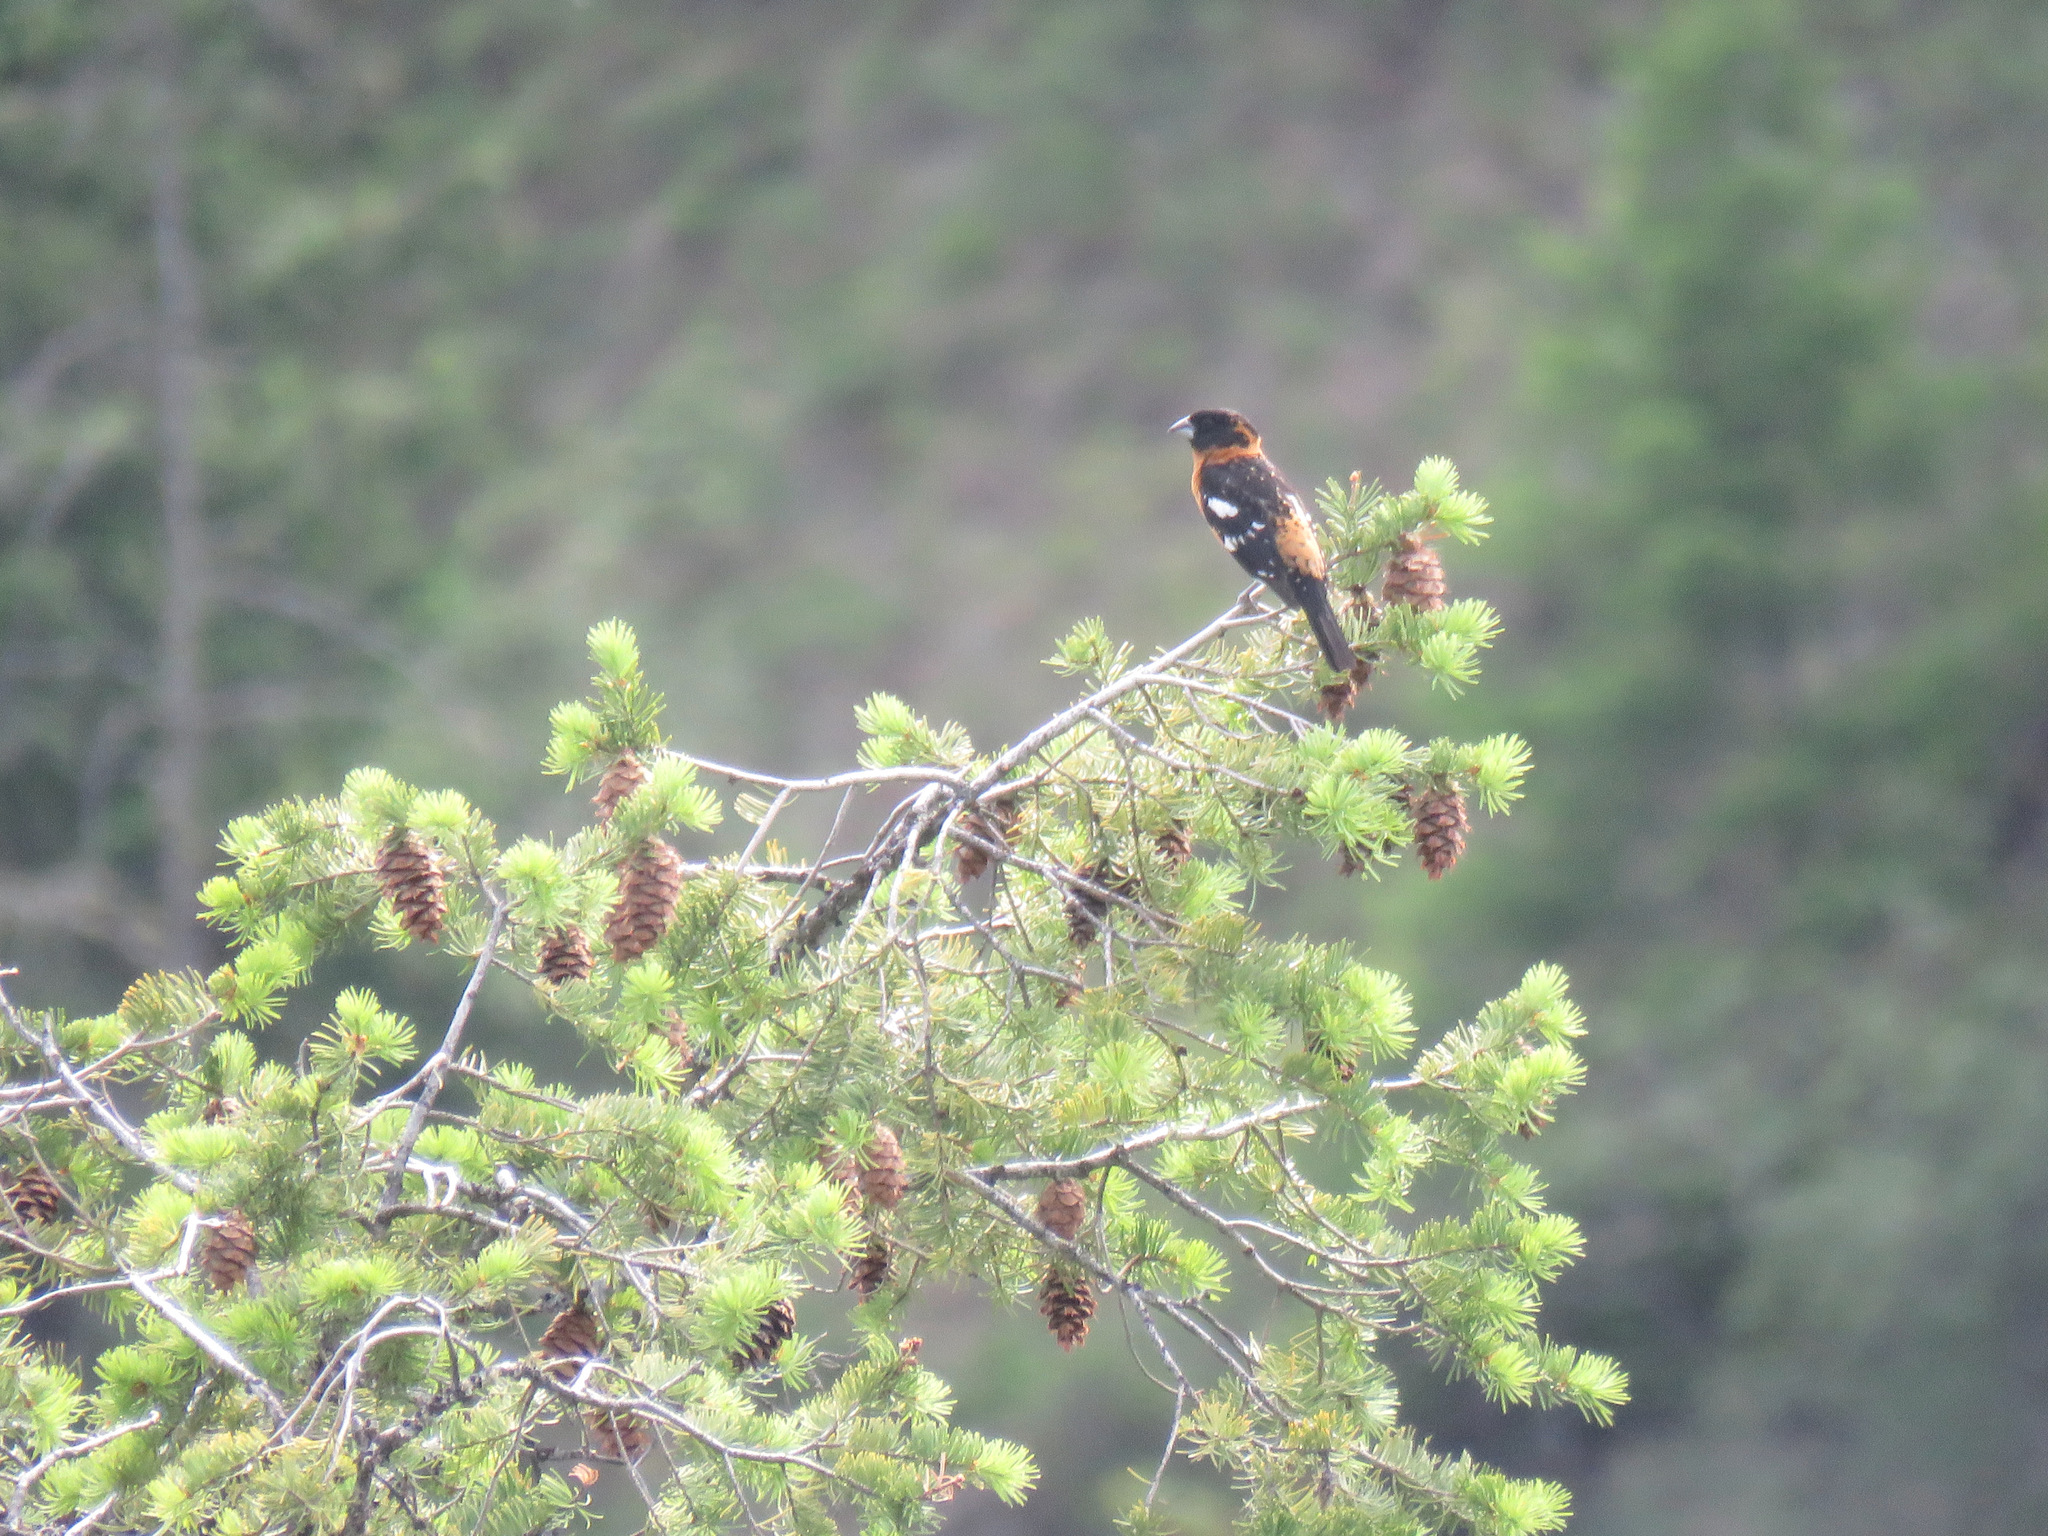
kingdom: Animalia
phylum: Chordata
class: Aves
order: Passeriformes
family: Cardinalidae
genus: Pheucticus
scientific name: Pheucticus melanocephalus
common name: Black-headed grosbeak
